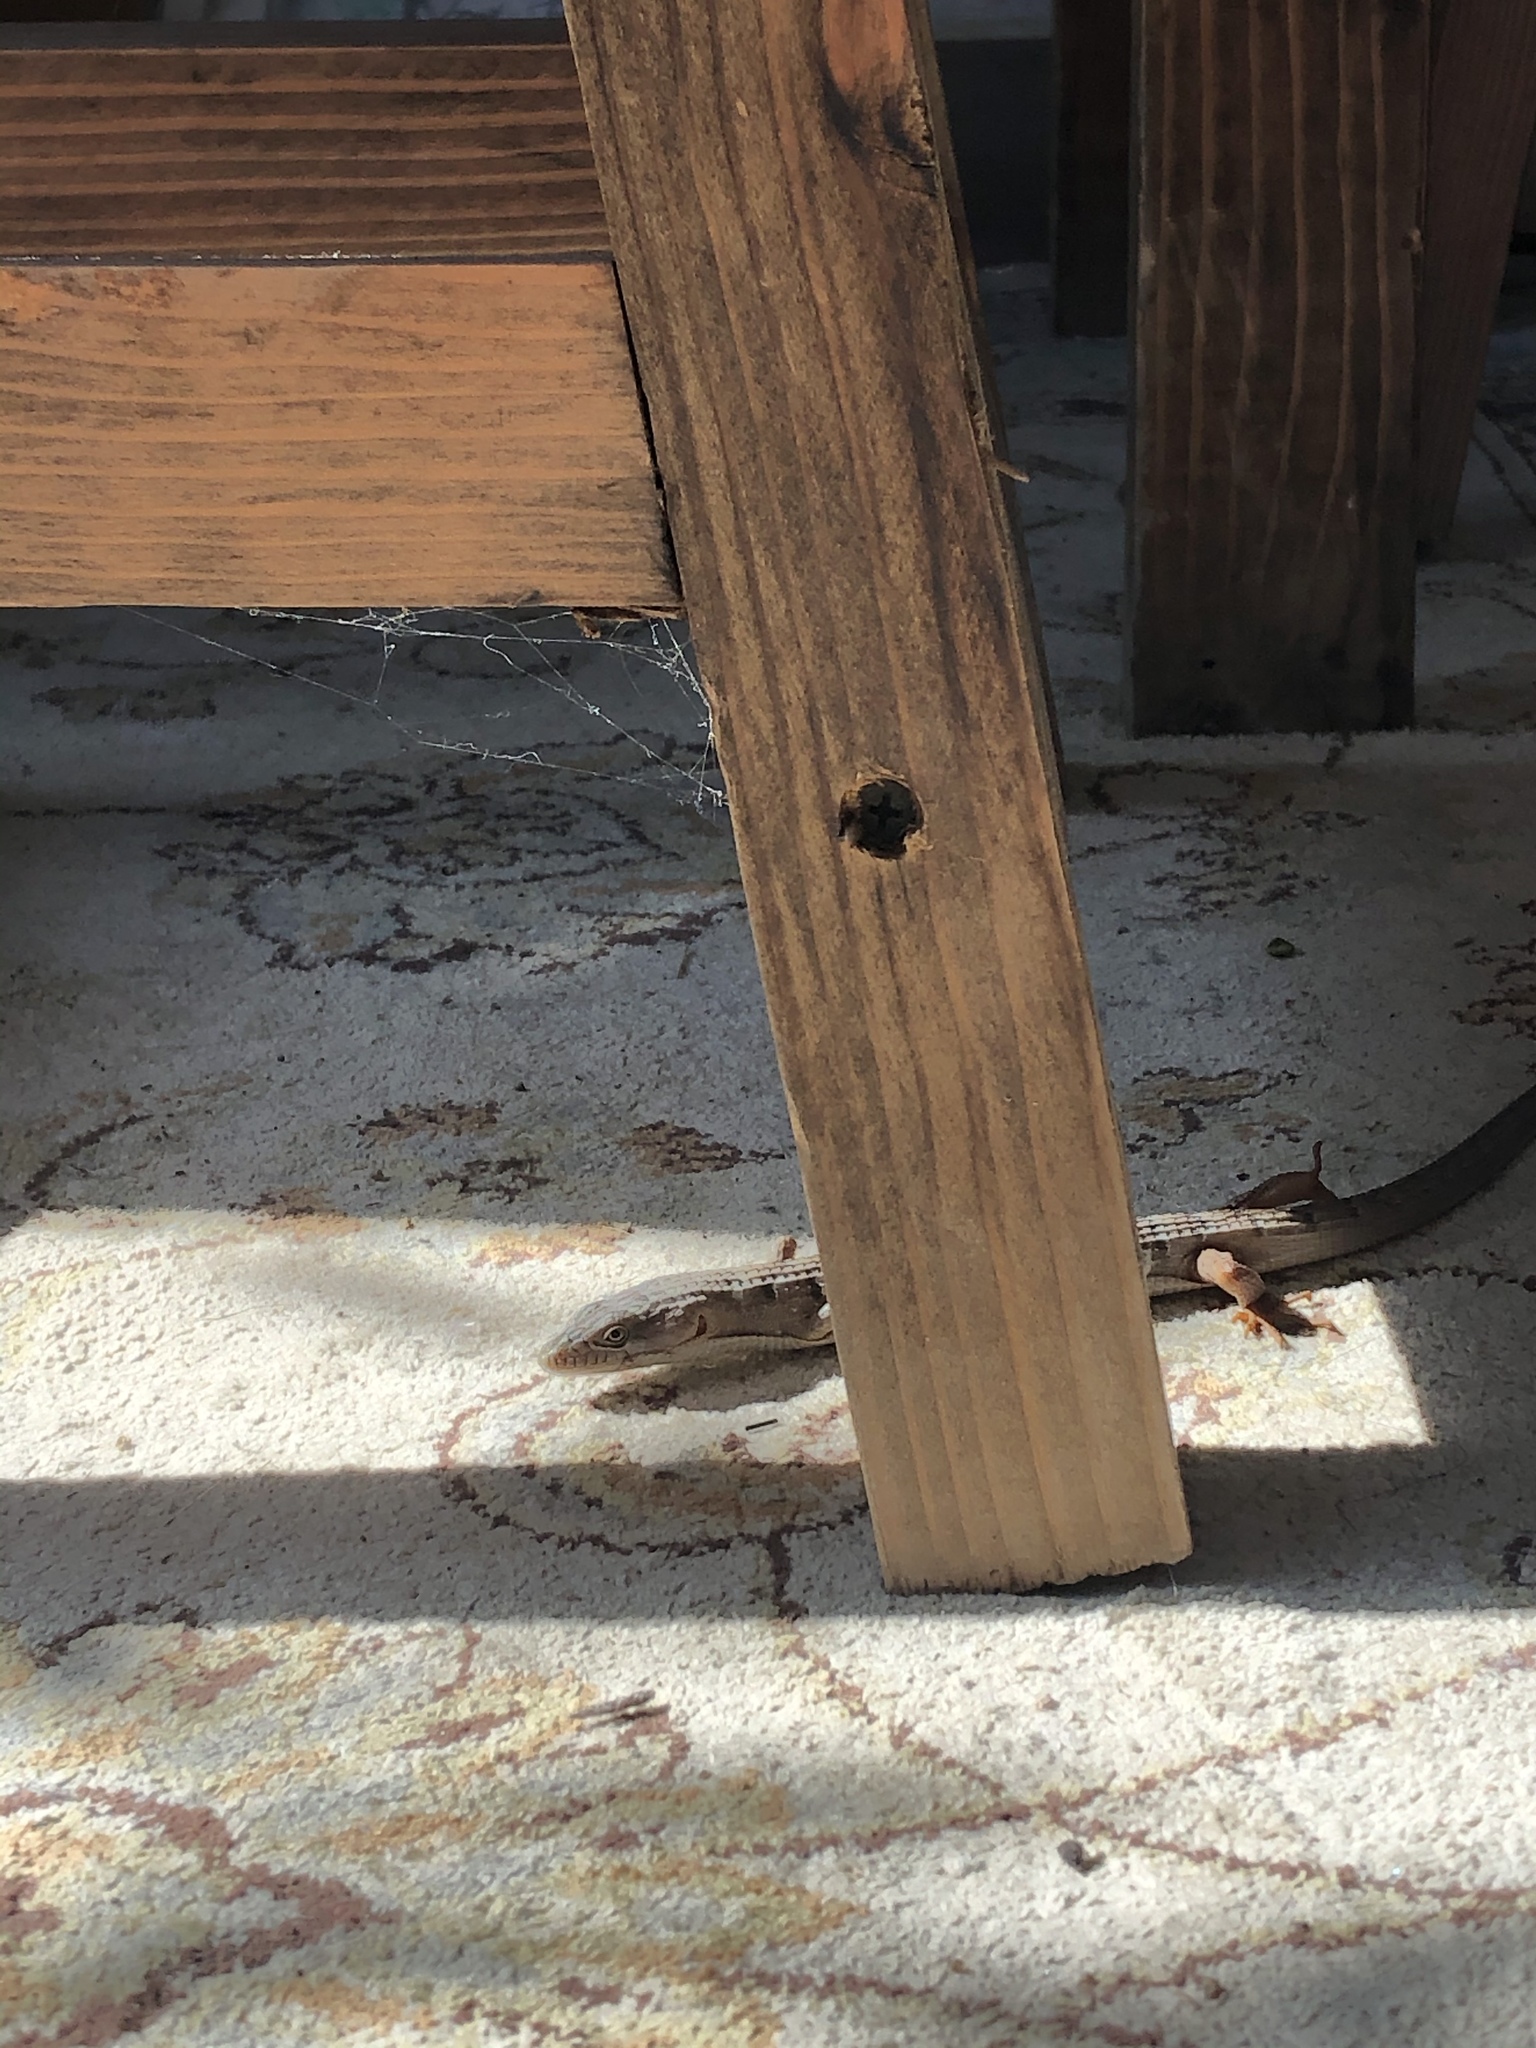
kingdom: Animalia
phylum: Chordata
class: Squamata
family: Anguidae
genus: Elgaria
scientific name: Elgaria multicarinata
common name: Southern alligator lizard
